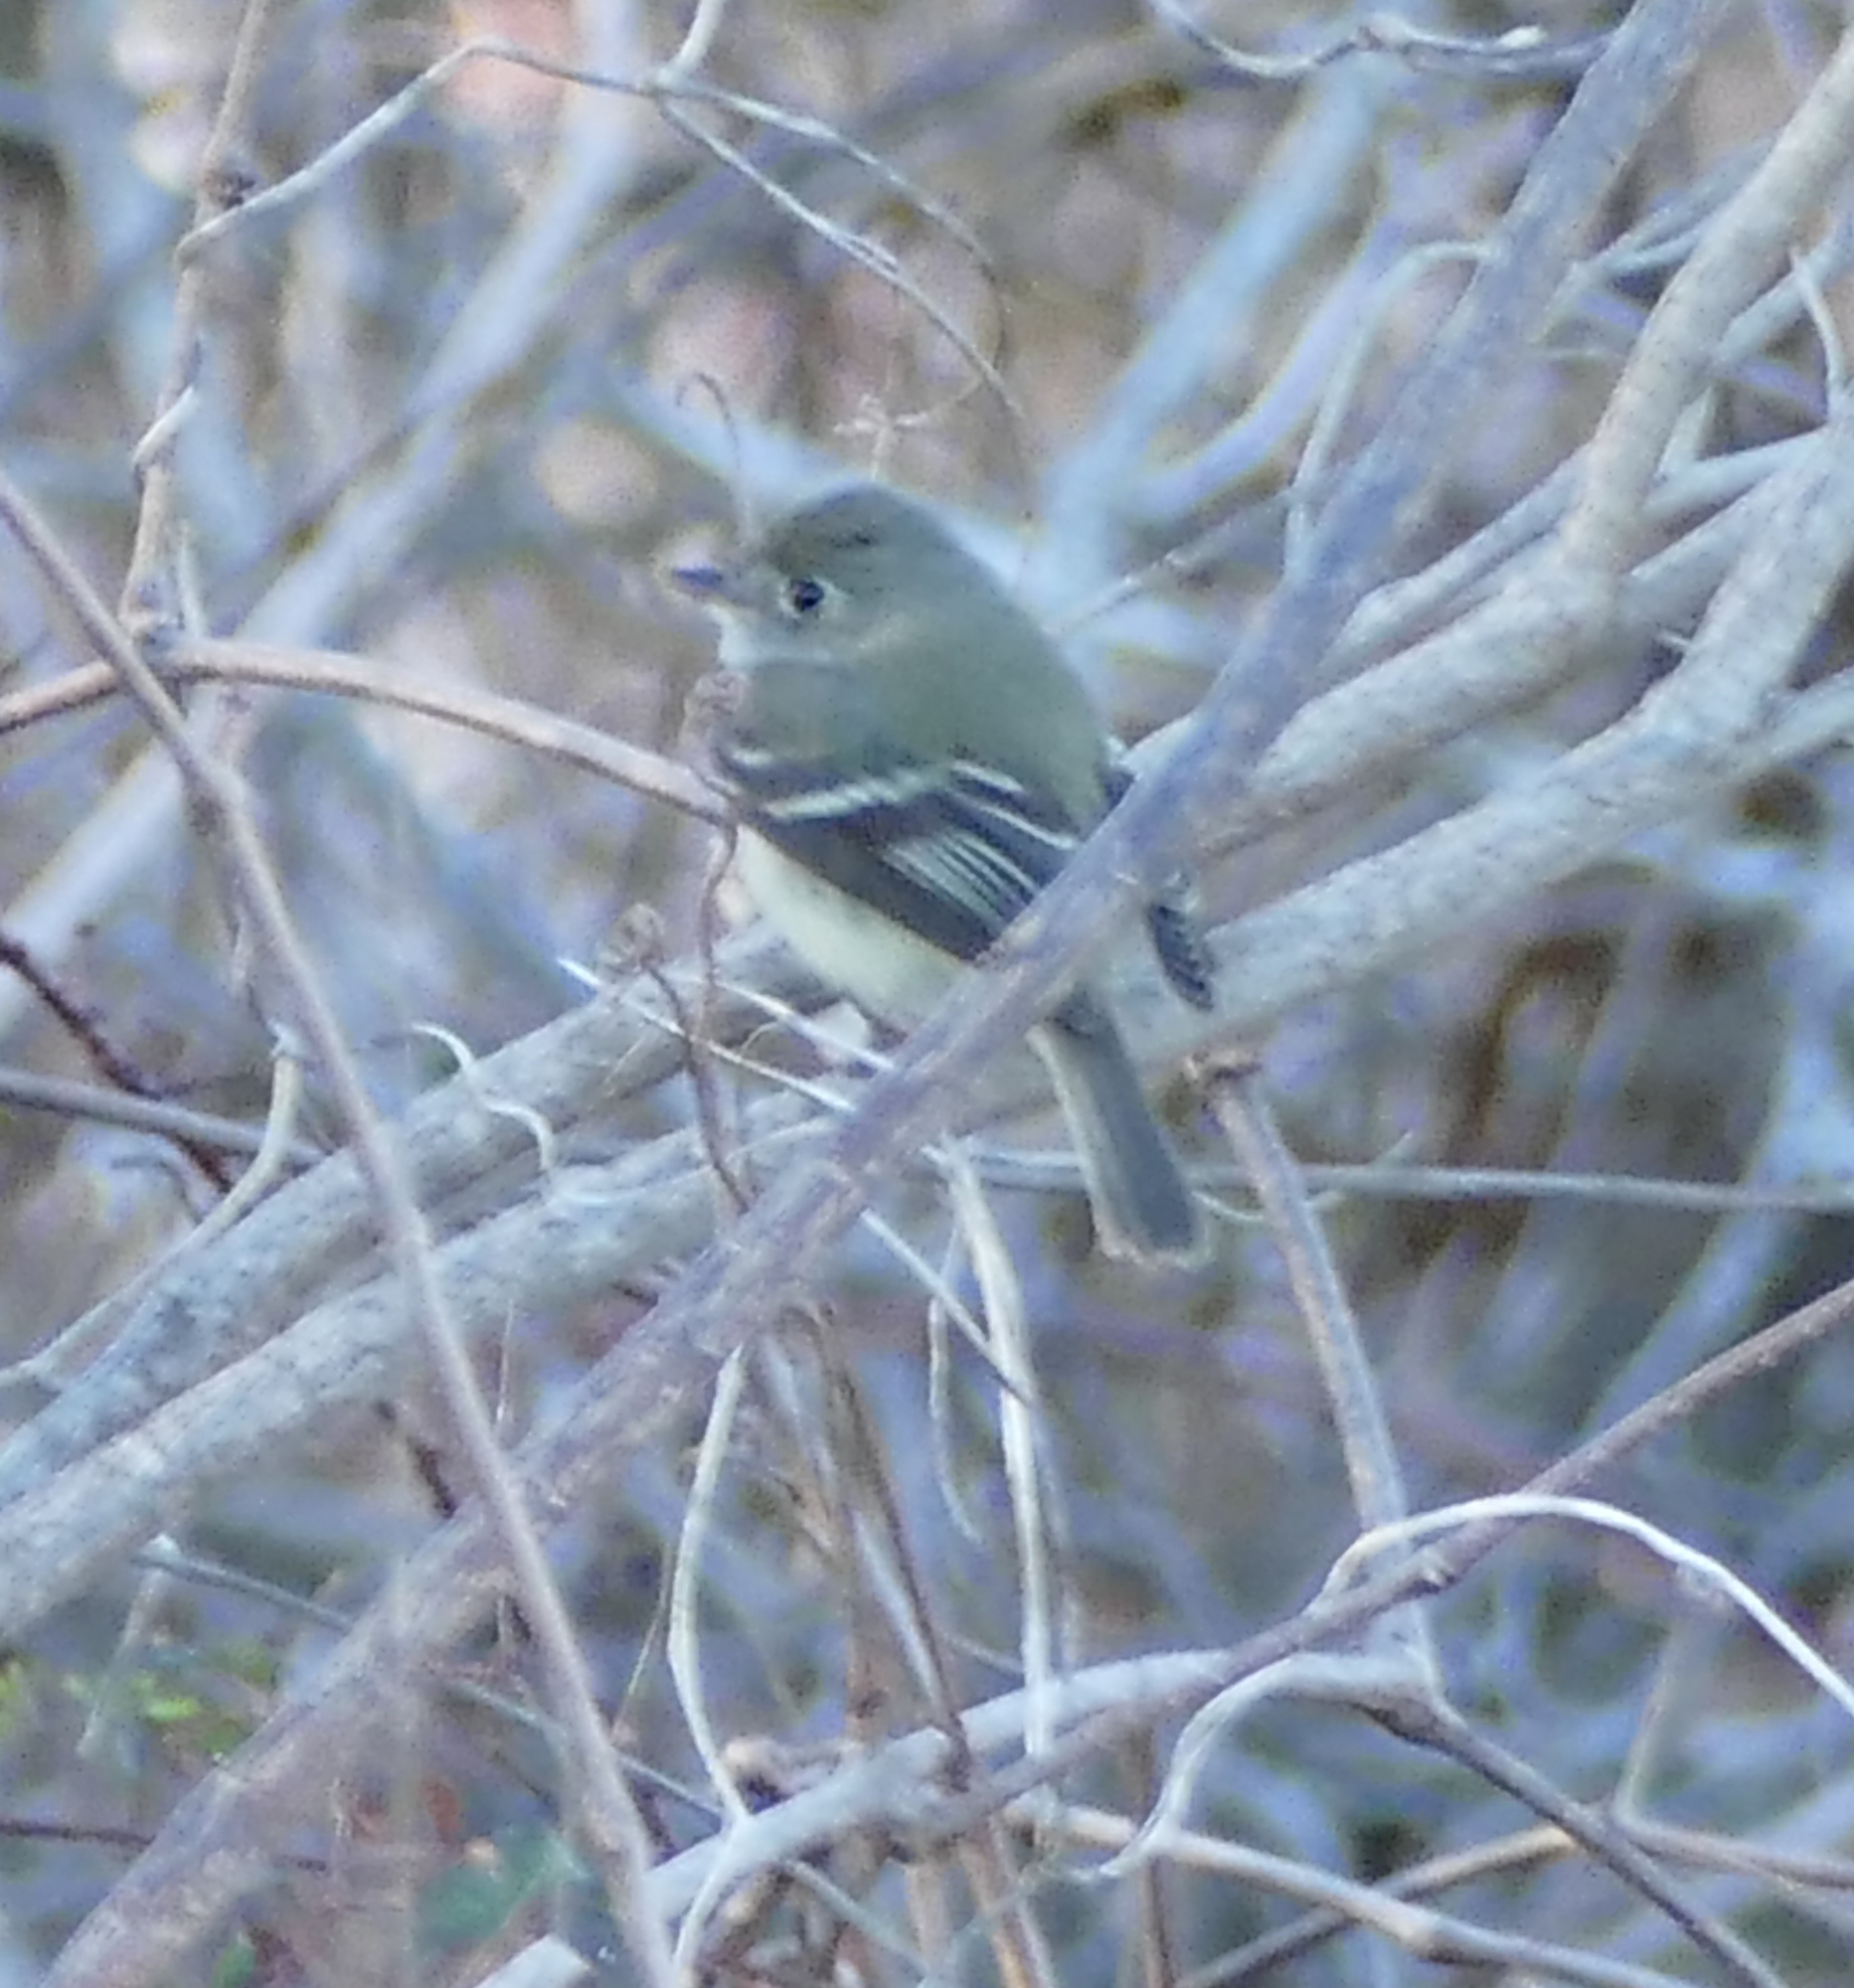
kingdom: Animalia
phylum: Chordata
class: Aves
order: Passeriformes
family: Tyrannidae
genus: Empidonax
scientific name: Empidonax minimus
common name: Least flycatcher
